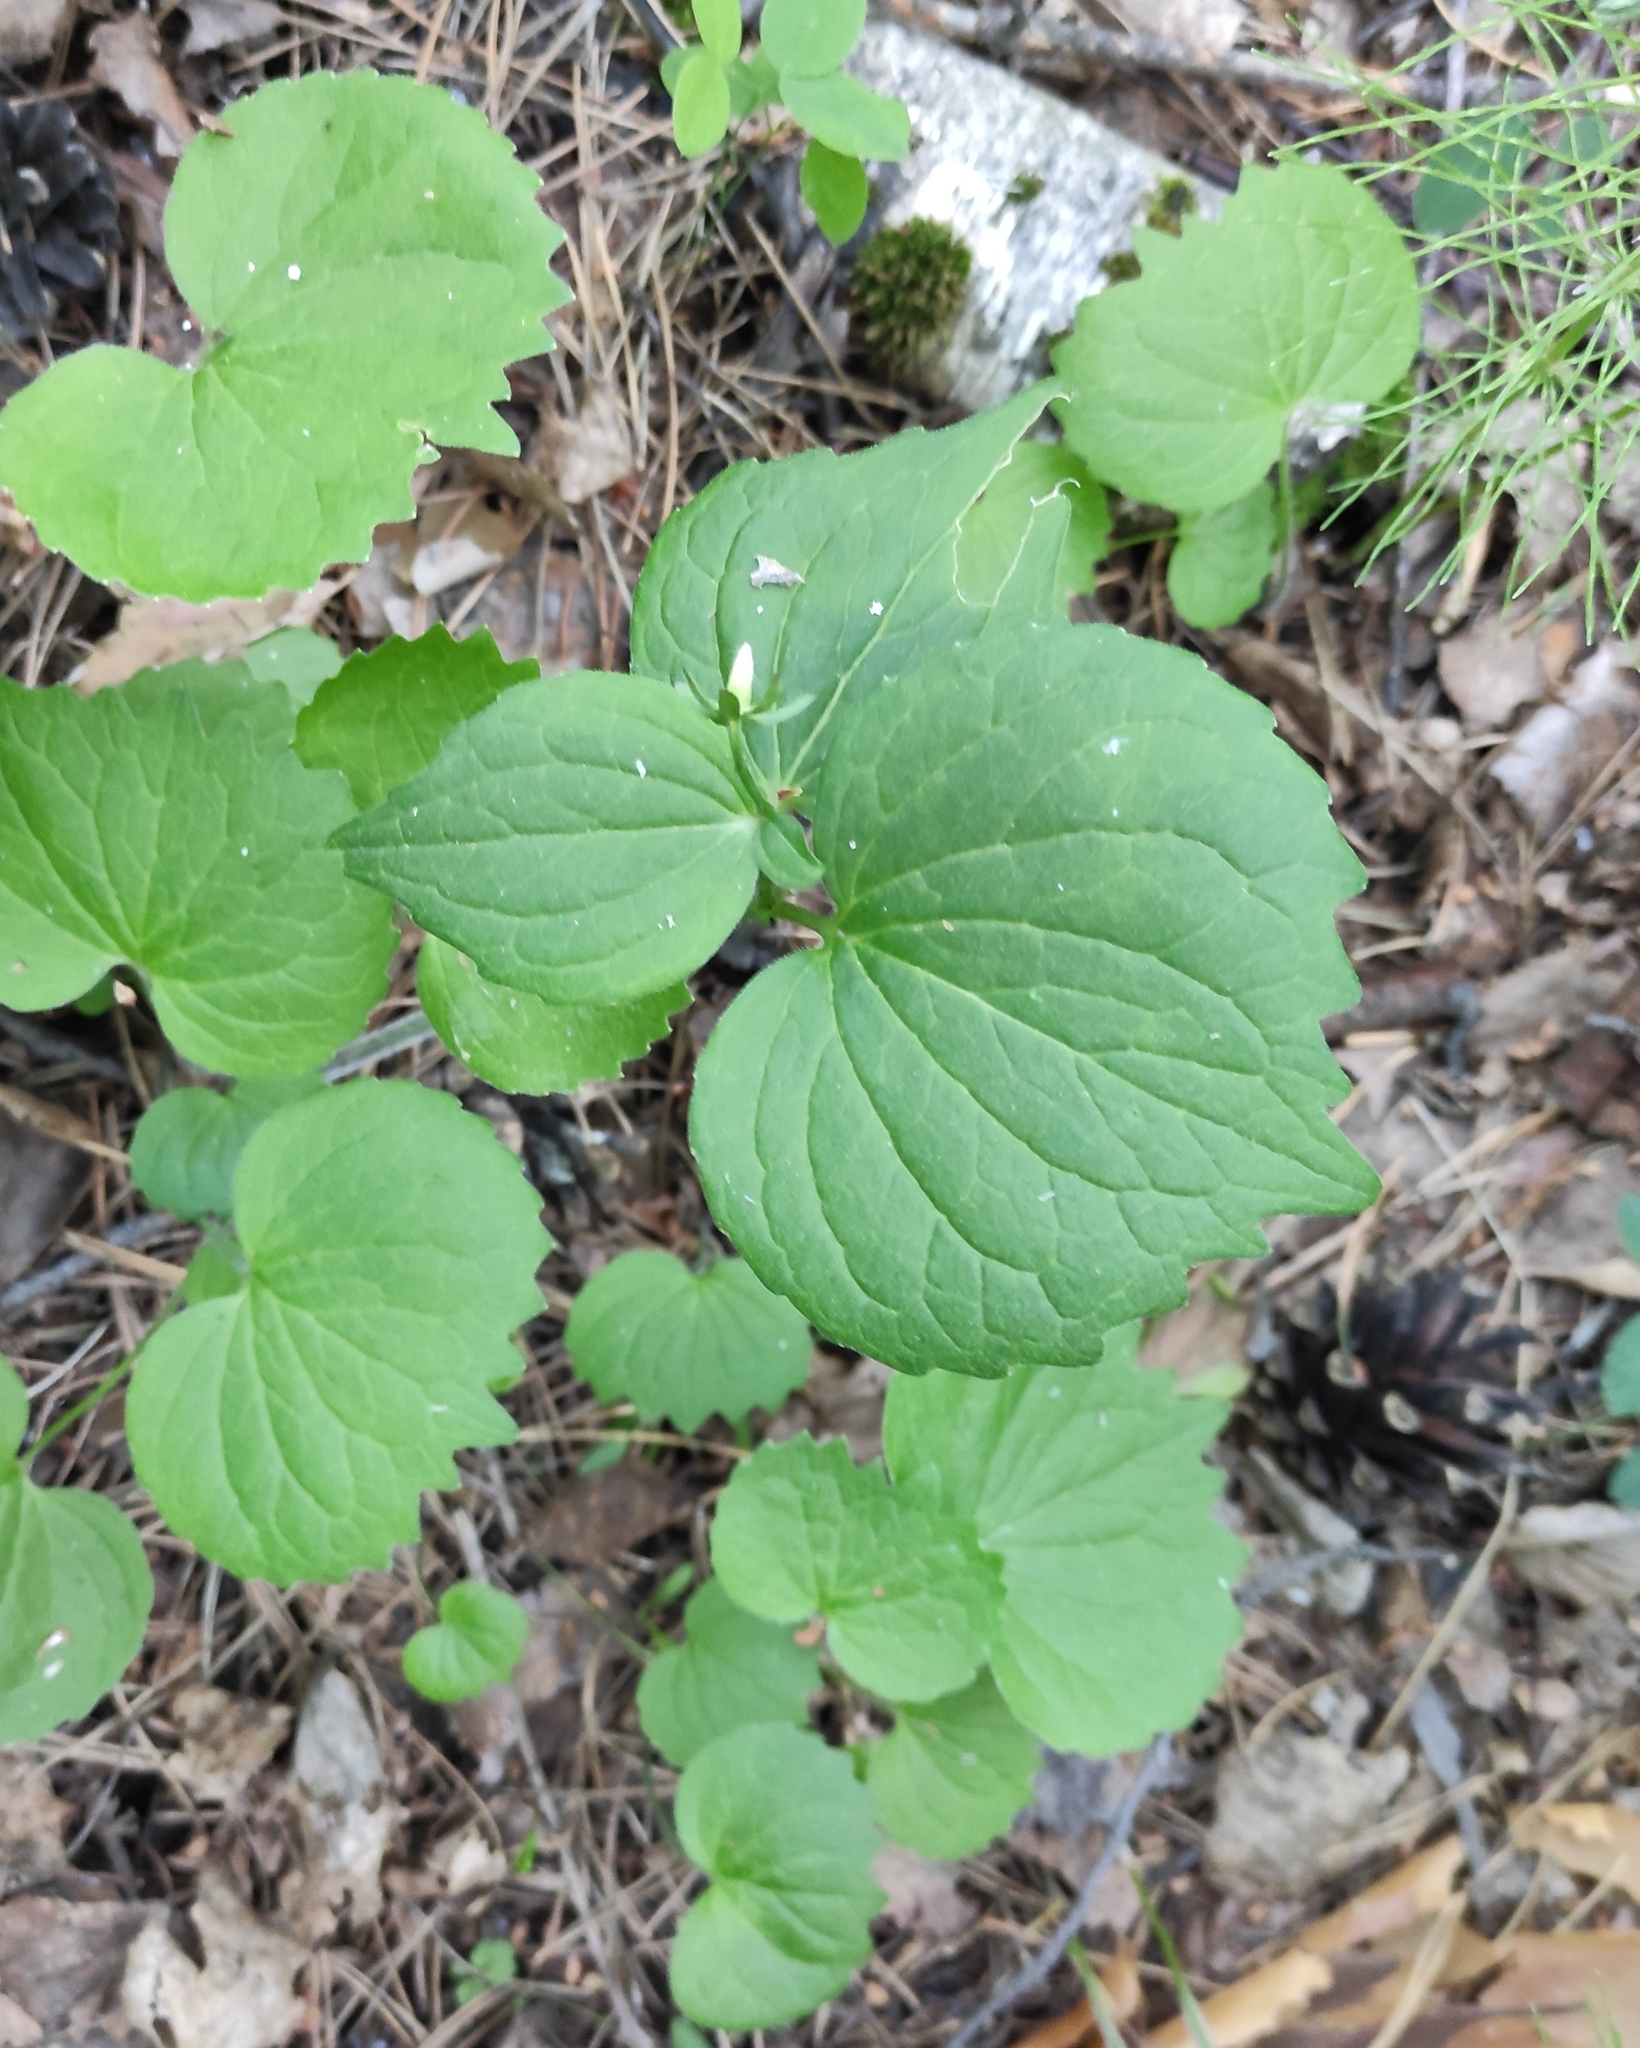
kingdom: Plantae
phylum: Tracheophyta
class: Magnoliopsida
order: Malpighiales
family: Violaceae
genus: Viola
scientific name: Viola uniflora
